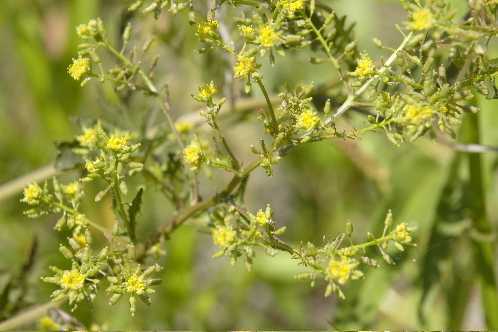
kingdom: Plantae
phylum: Tracheophyta
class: Magnoliopsida
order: Brassicales
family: Brassicaceae
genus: Rorippa
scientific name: Rorippa palustris
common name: Marsh yellow-cress
